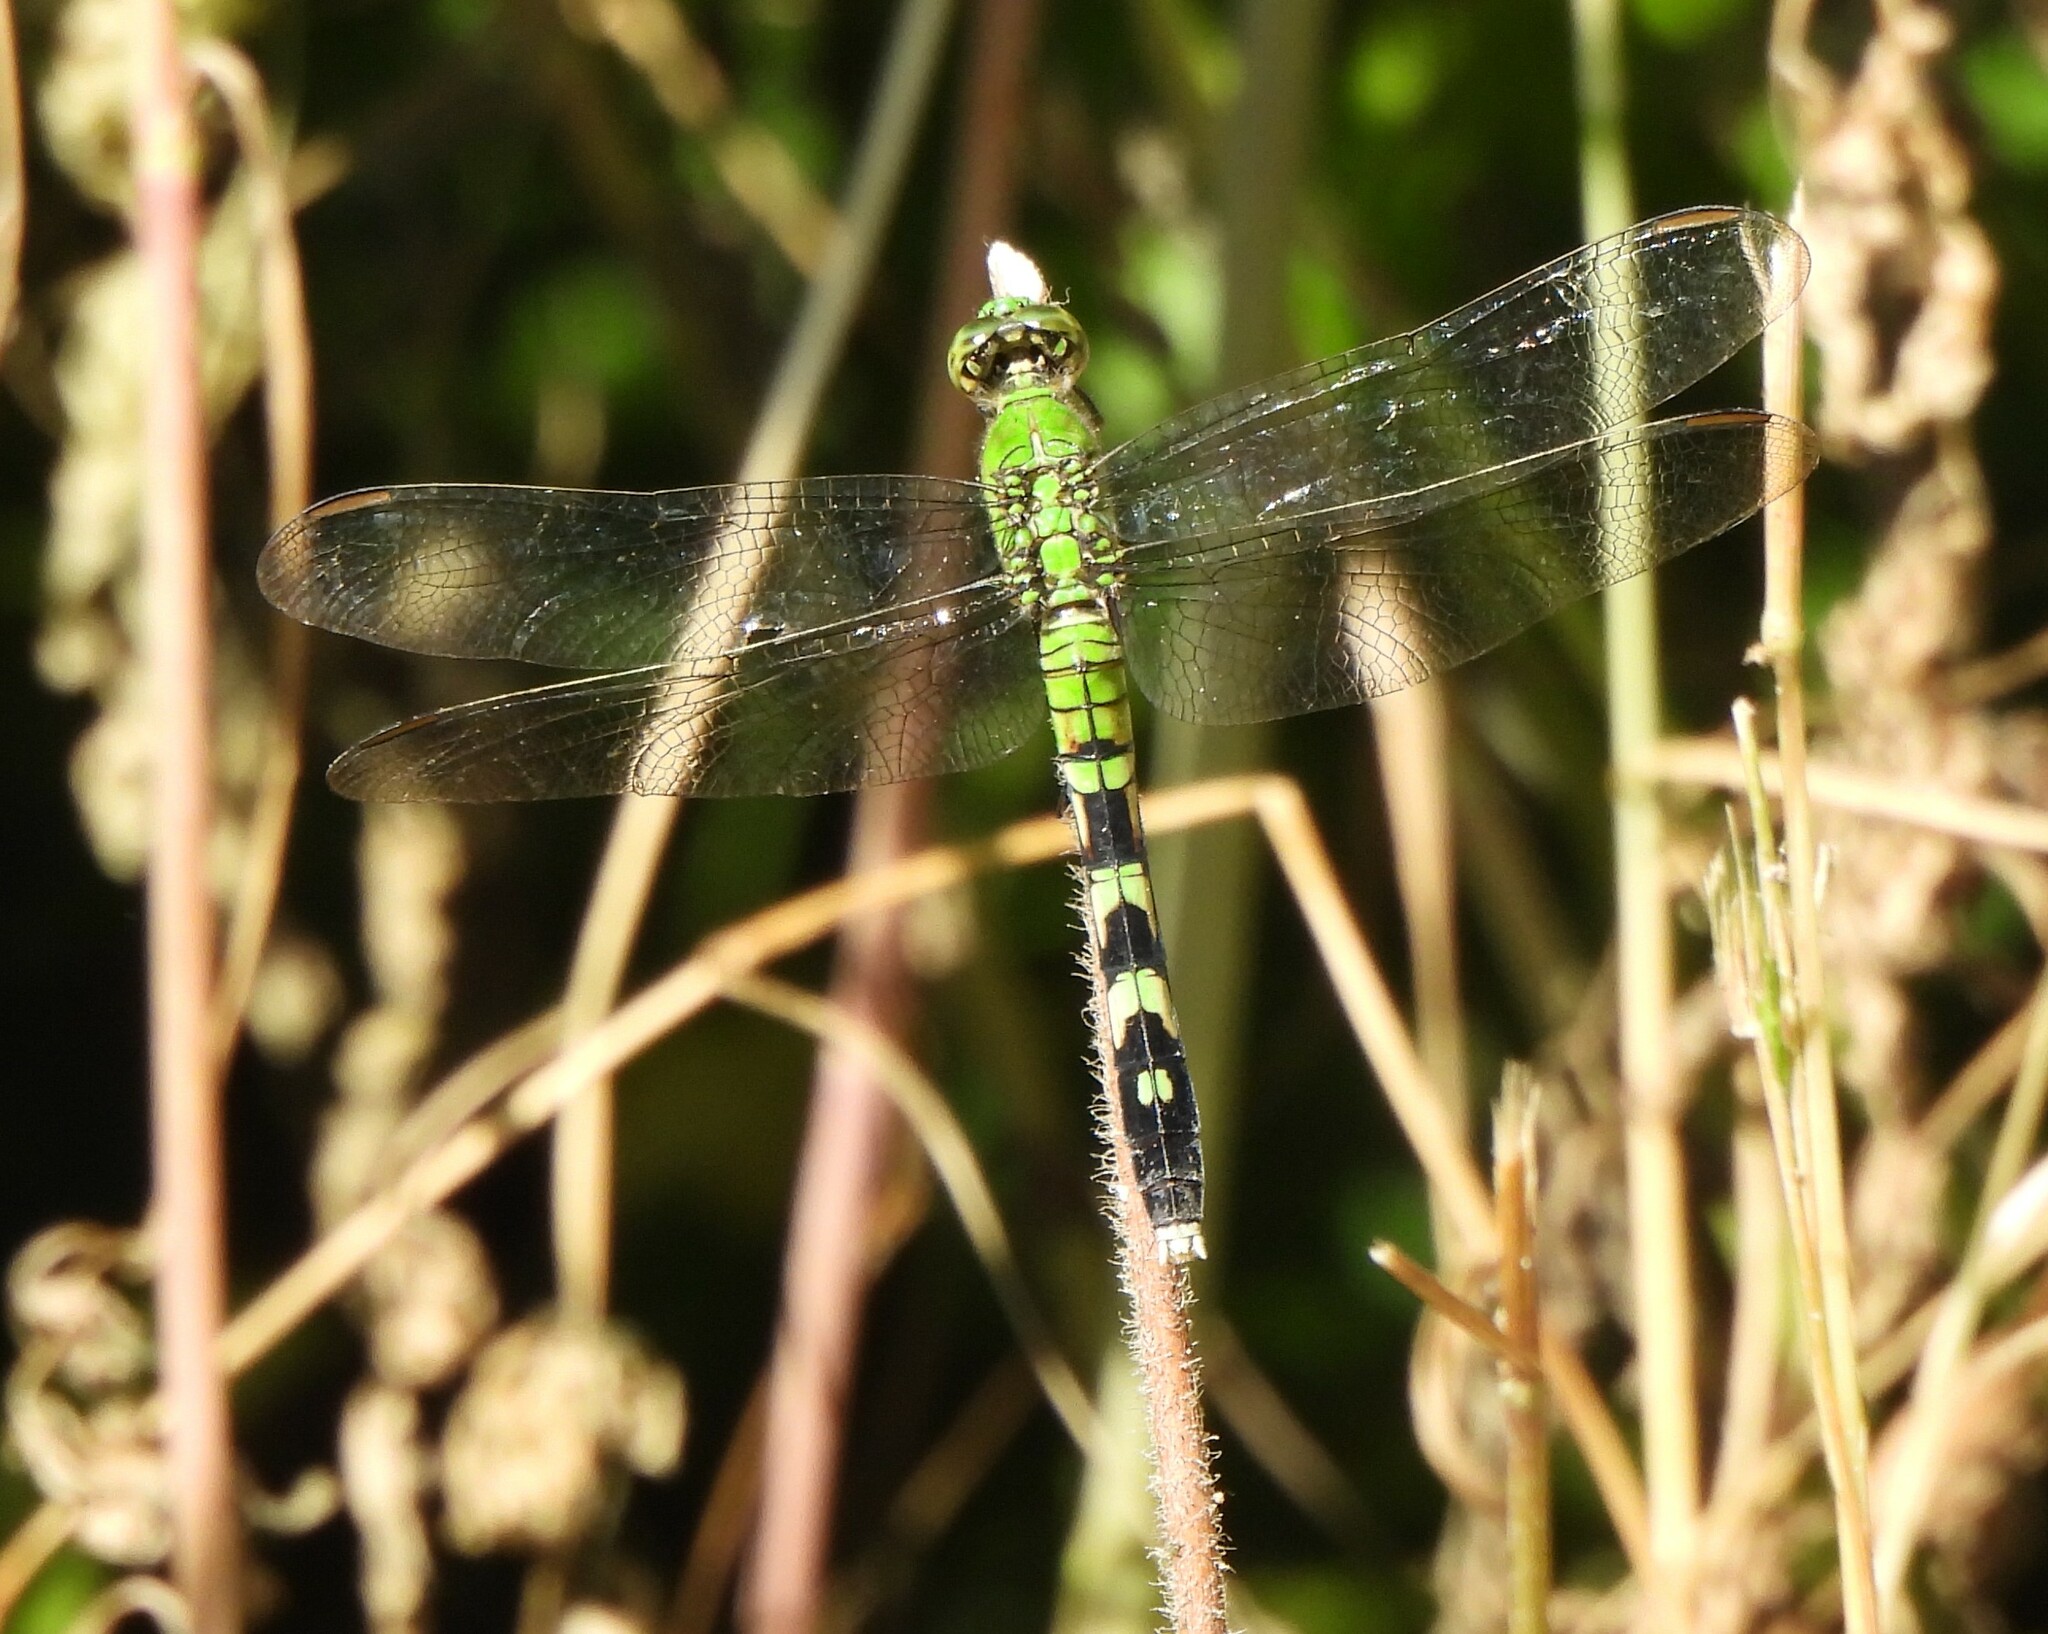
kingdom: Animalia
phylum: Arthropoda
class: Insecta
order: Odonata
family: Libellulidae
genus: Erythemis
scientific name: Erythemis simplicicollis
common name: Eastern pondhawk
